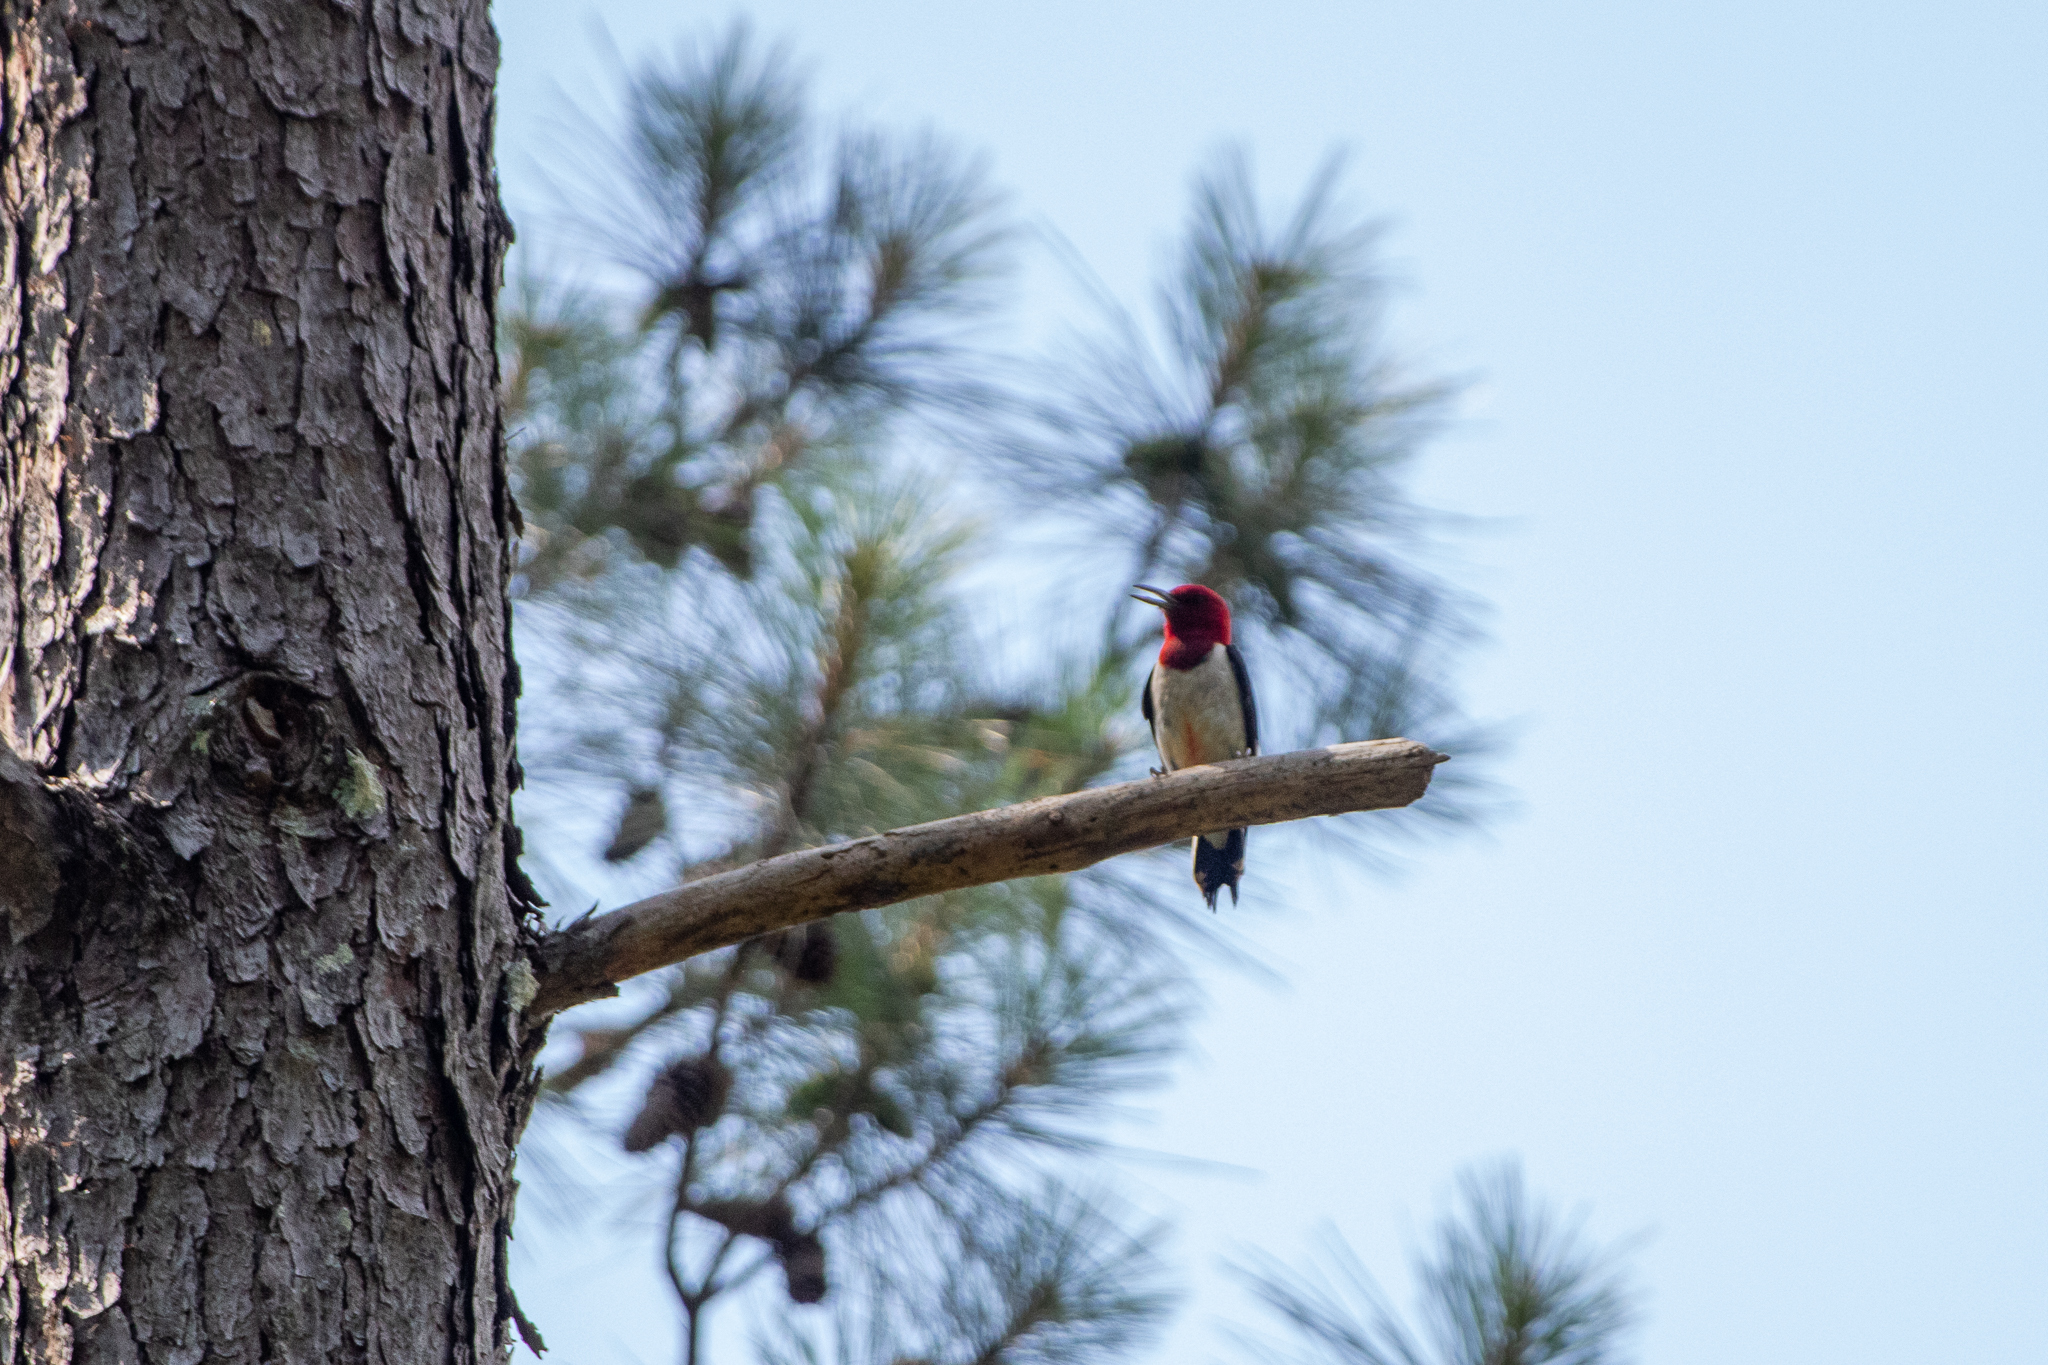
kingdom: Animalia
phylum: Chordata
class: Aves
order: Piciformes
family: Picidae
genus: Melanerpes
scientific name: Melanerpes erythrocephalus
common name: Red-headed woodpecker
